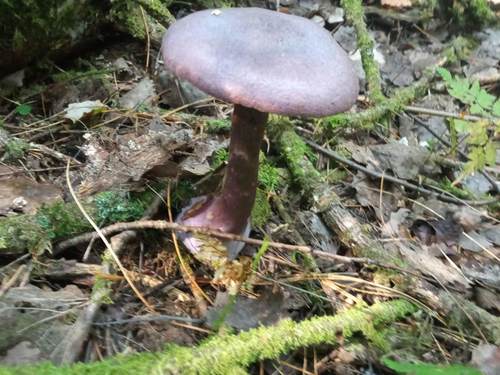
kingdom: Fungi
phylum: Basidiomycota
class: Agaricomycetes
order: Agaricales
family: Cortinariaceae
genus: Cortinarius
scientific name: Cortinarius violaceus
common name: Violet webcap
